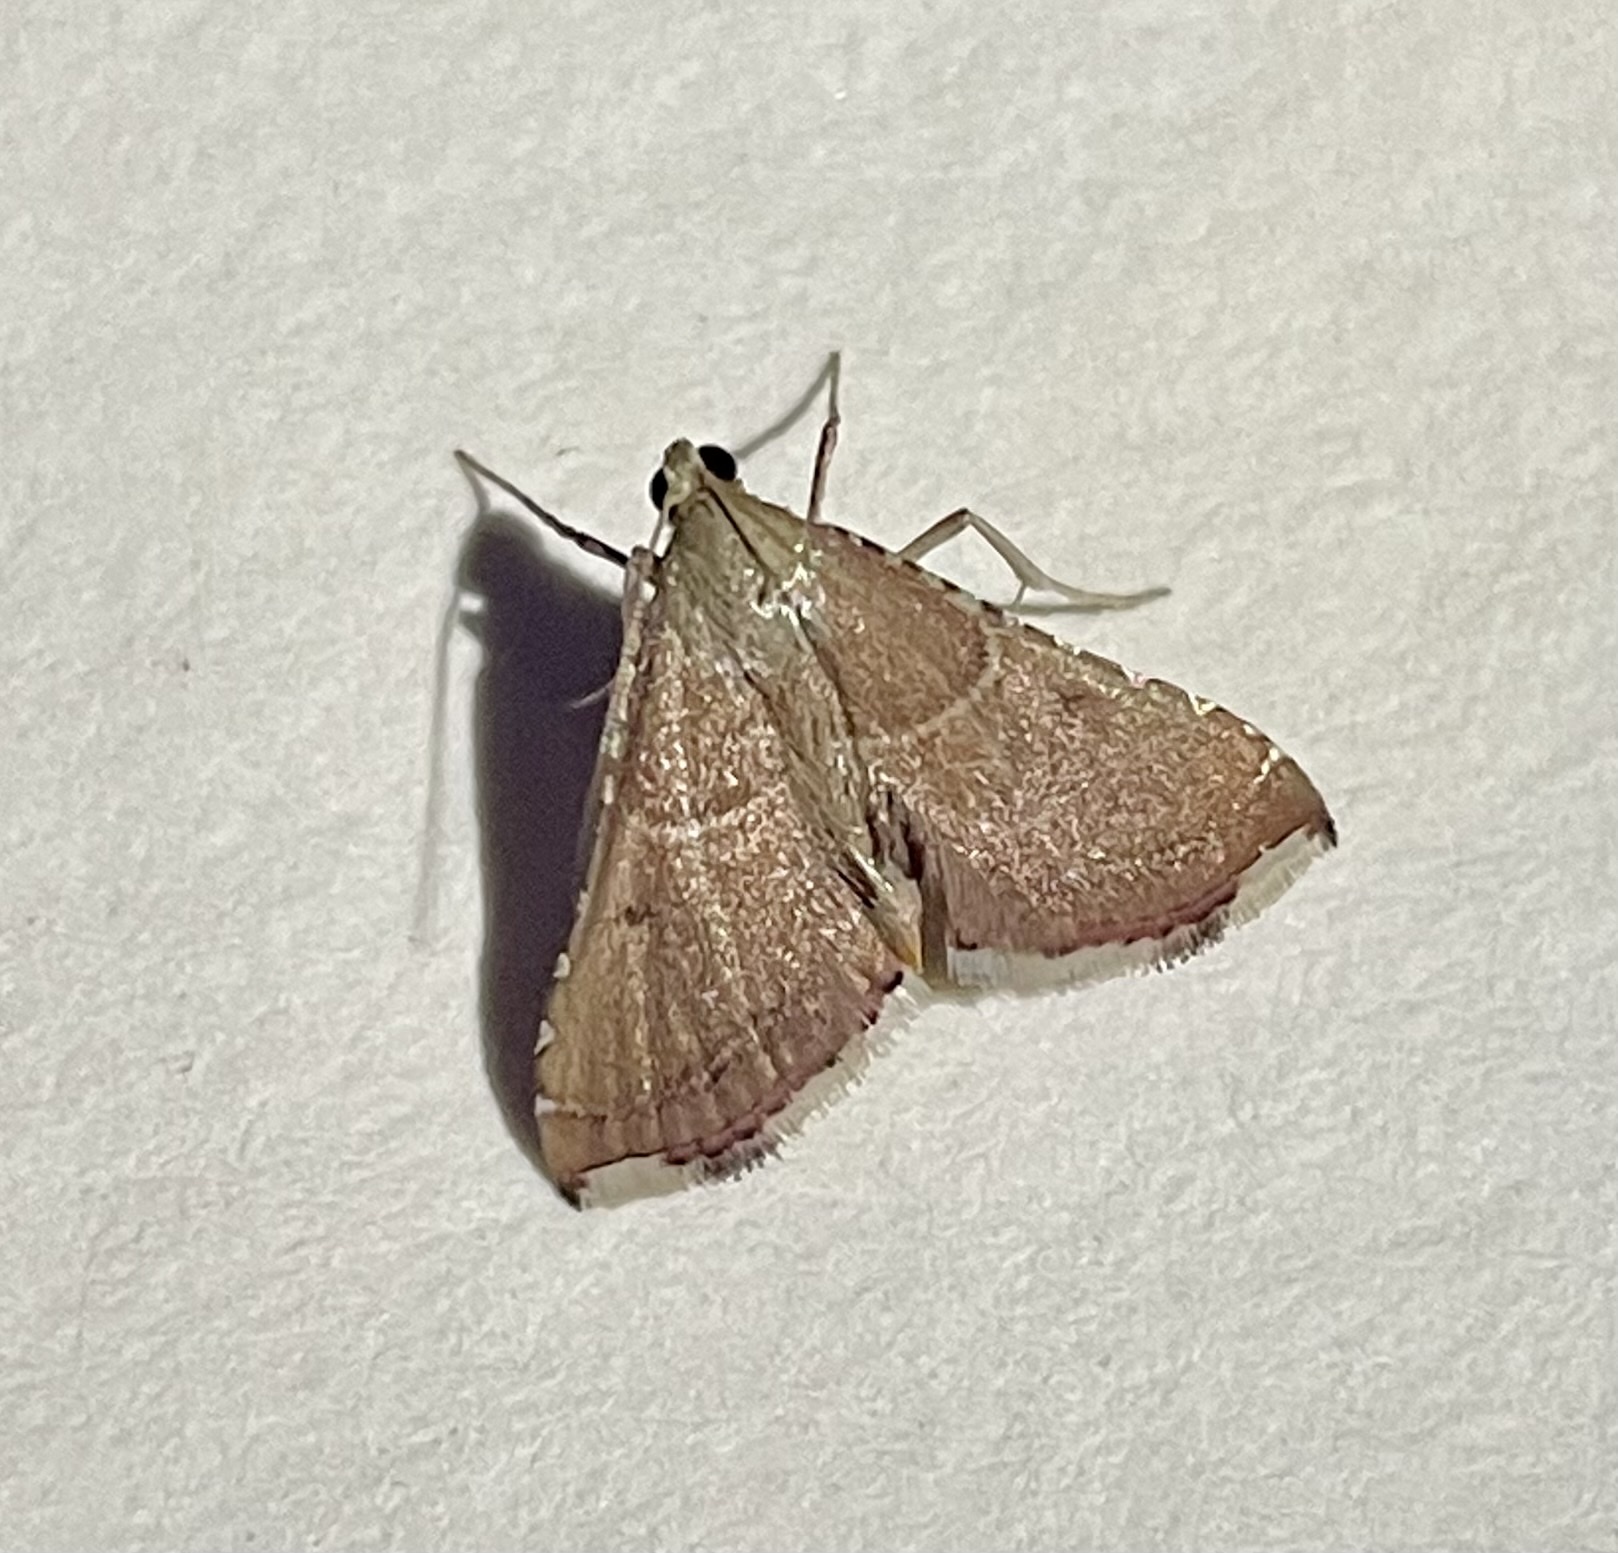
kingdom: Animalia
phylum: Arthropoda
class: Insecta
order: Lepidoptera
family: Pyralidae
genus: Endotricha
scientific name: Endotricha flammealis
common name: Rosy tabby
